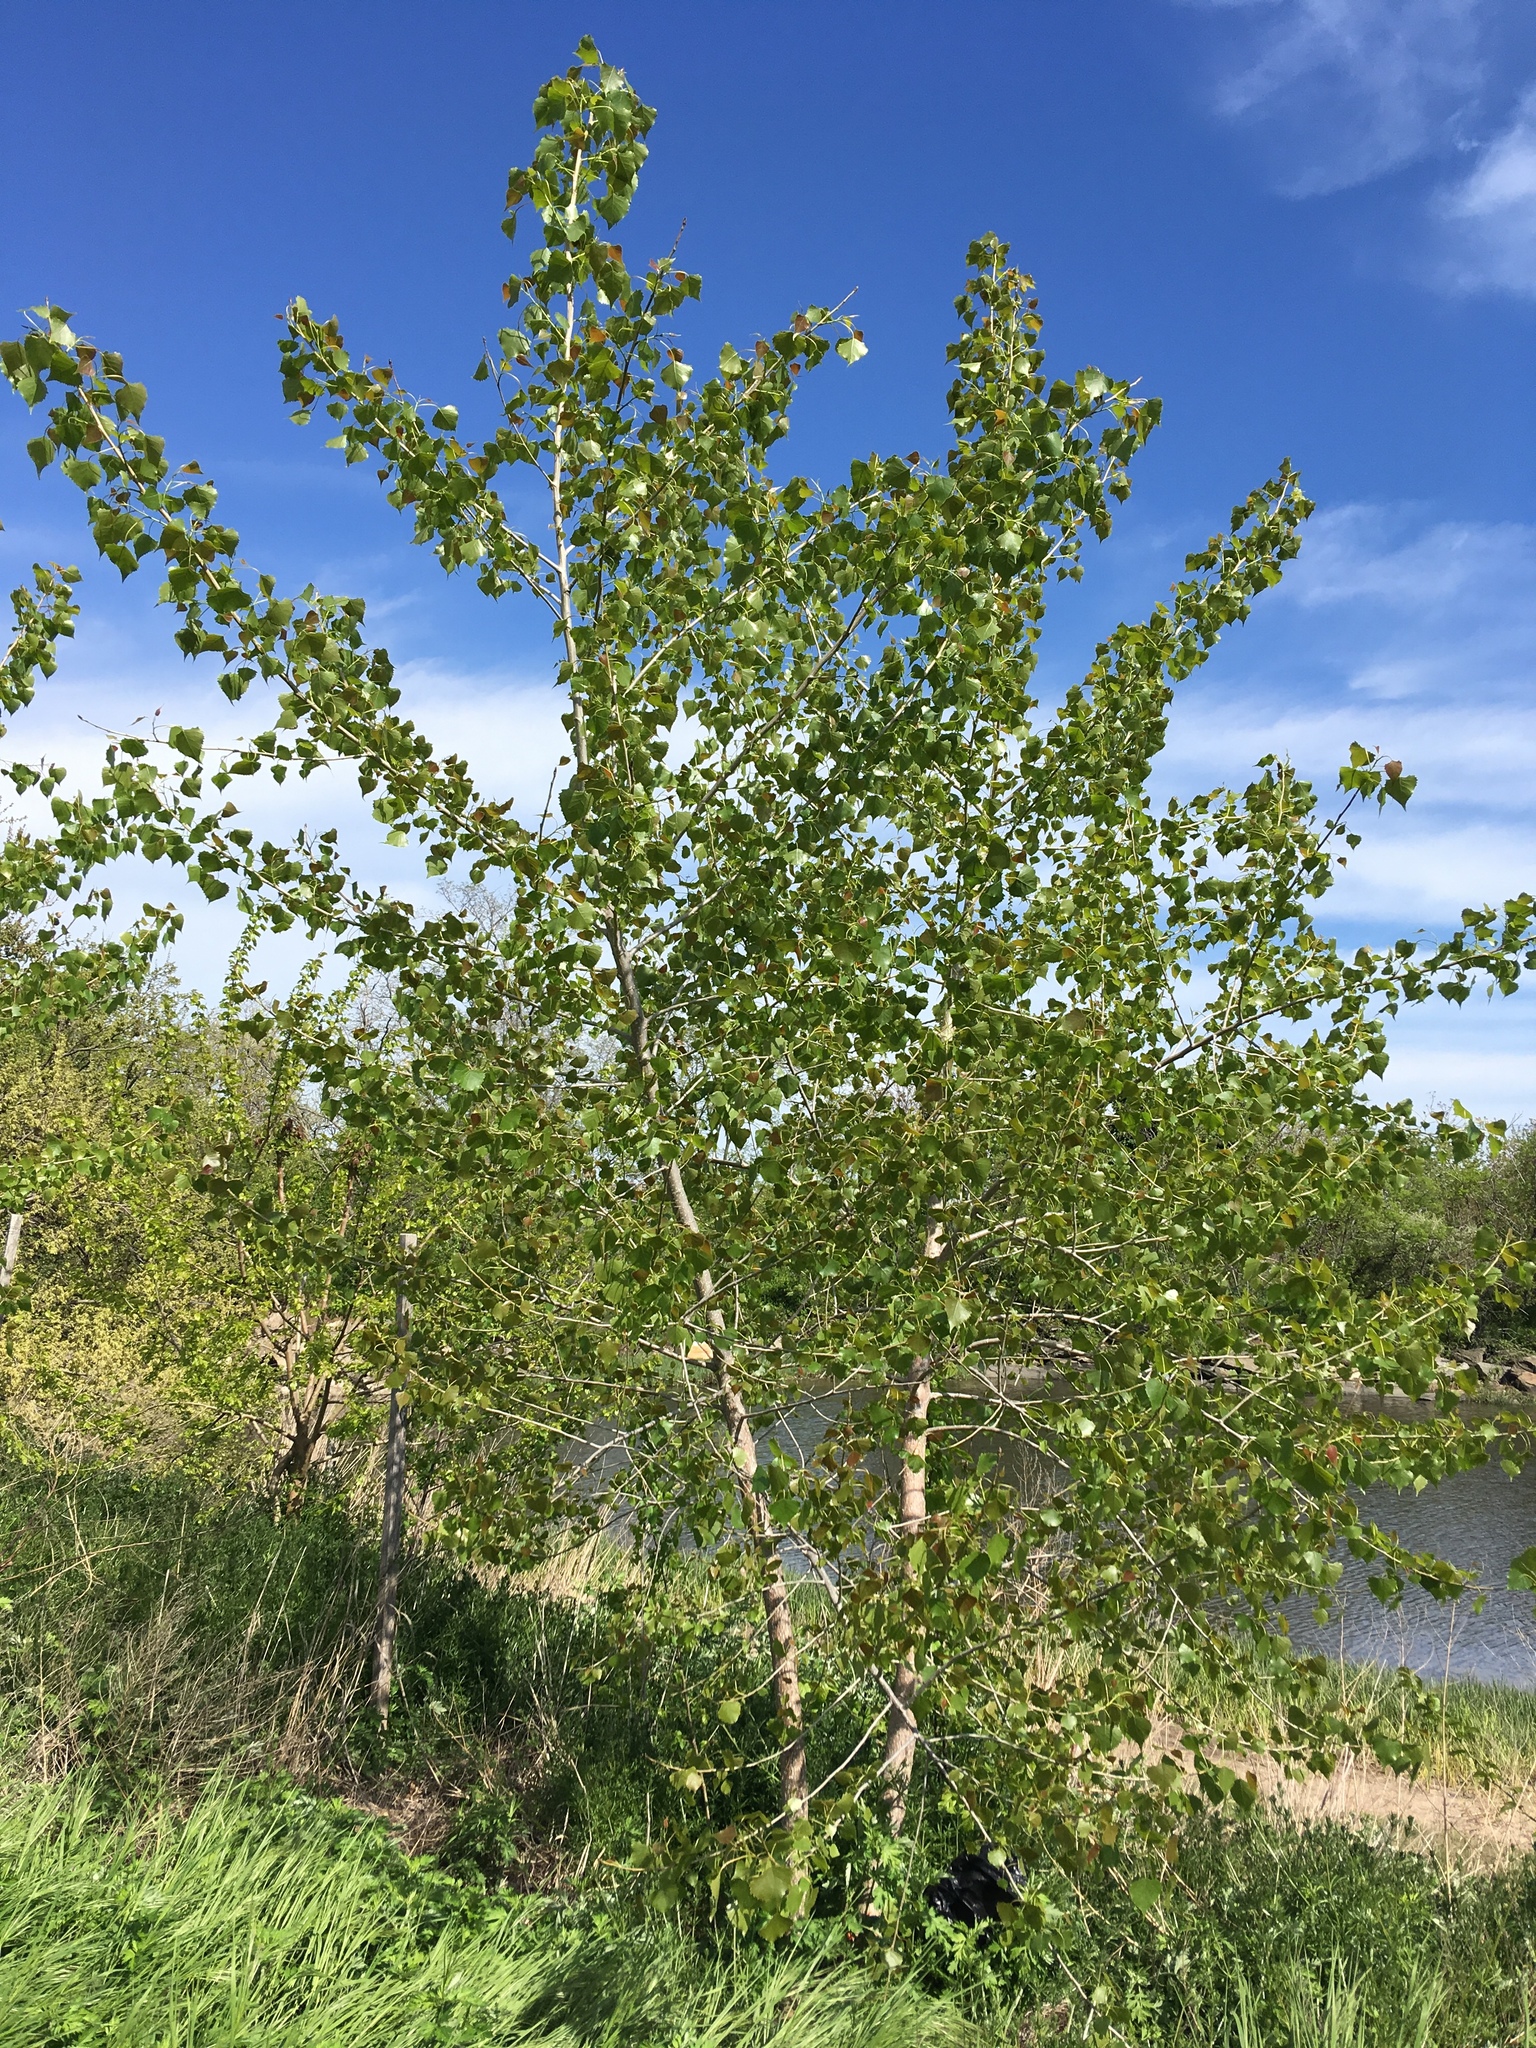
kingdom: Plantae
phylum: Tracheophyta
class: Magnoliopsida
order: Malpighiales
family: Salicaceae
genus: Populus
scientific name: Populus deltoides
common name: Eastern cottonwood
